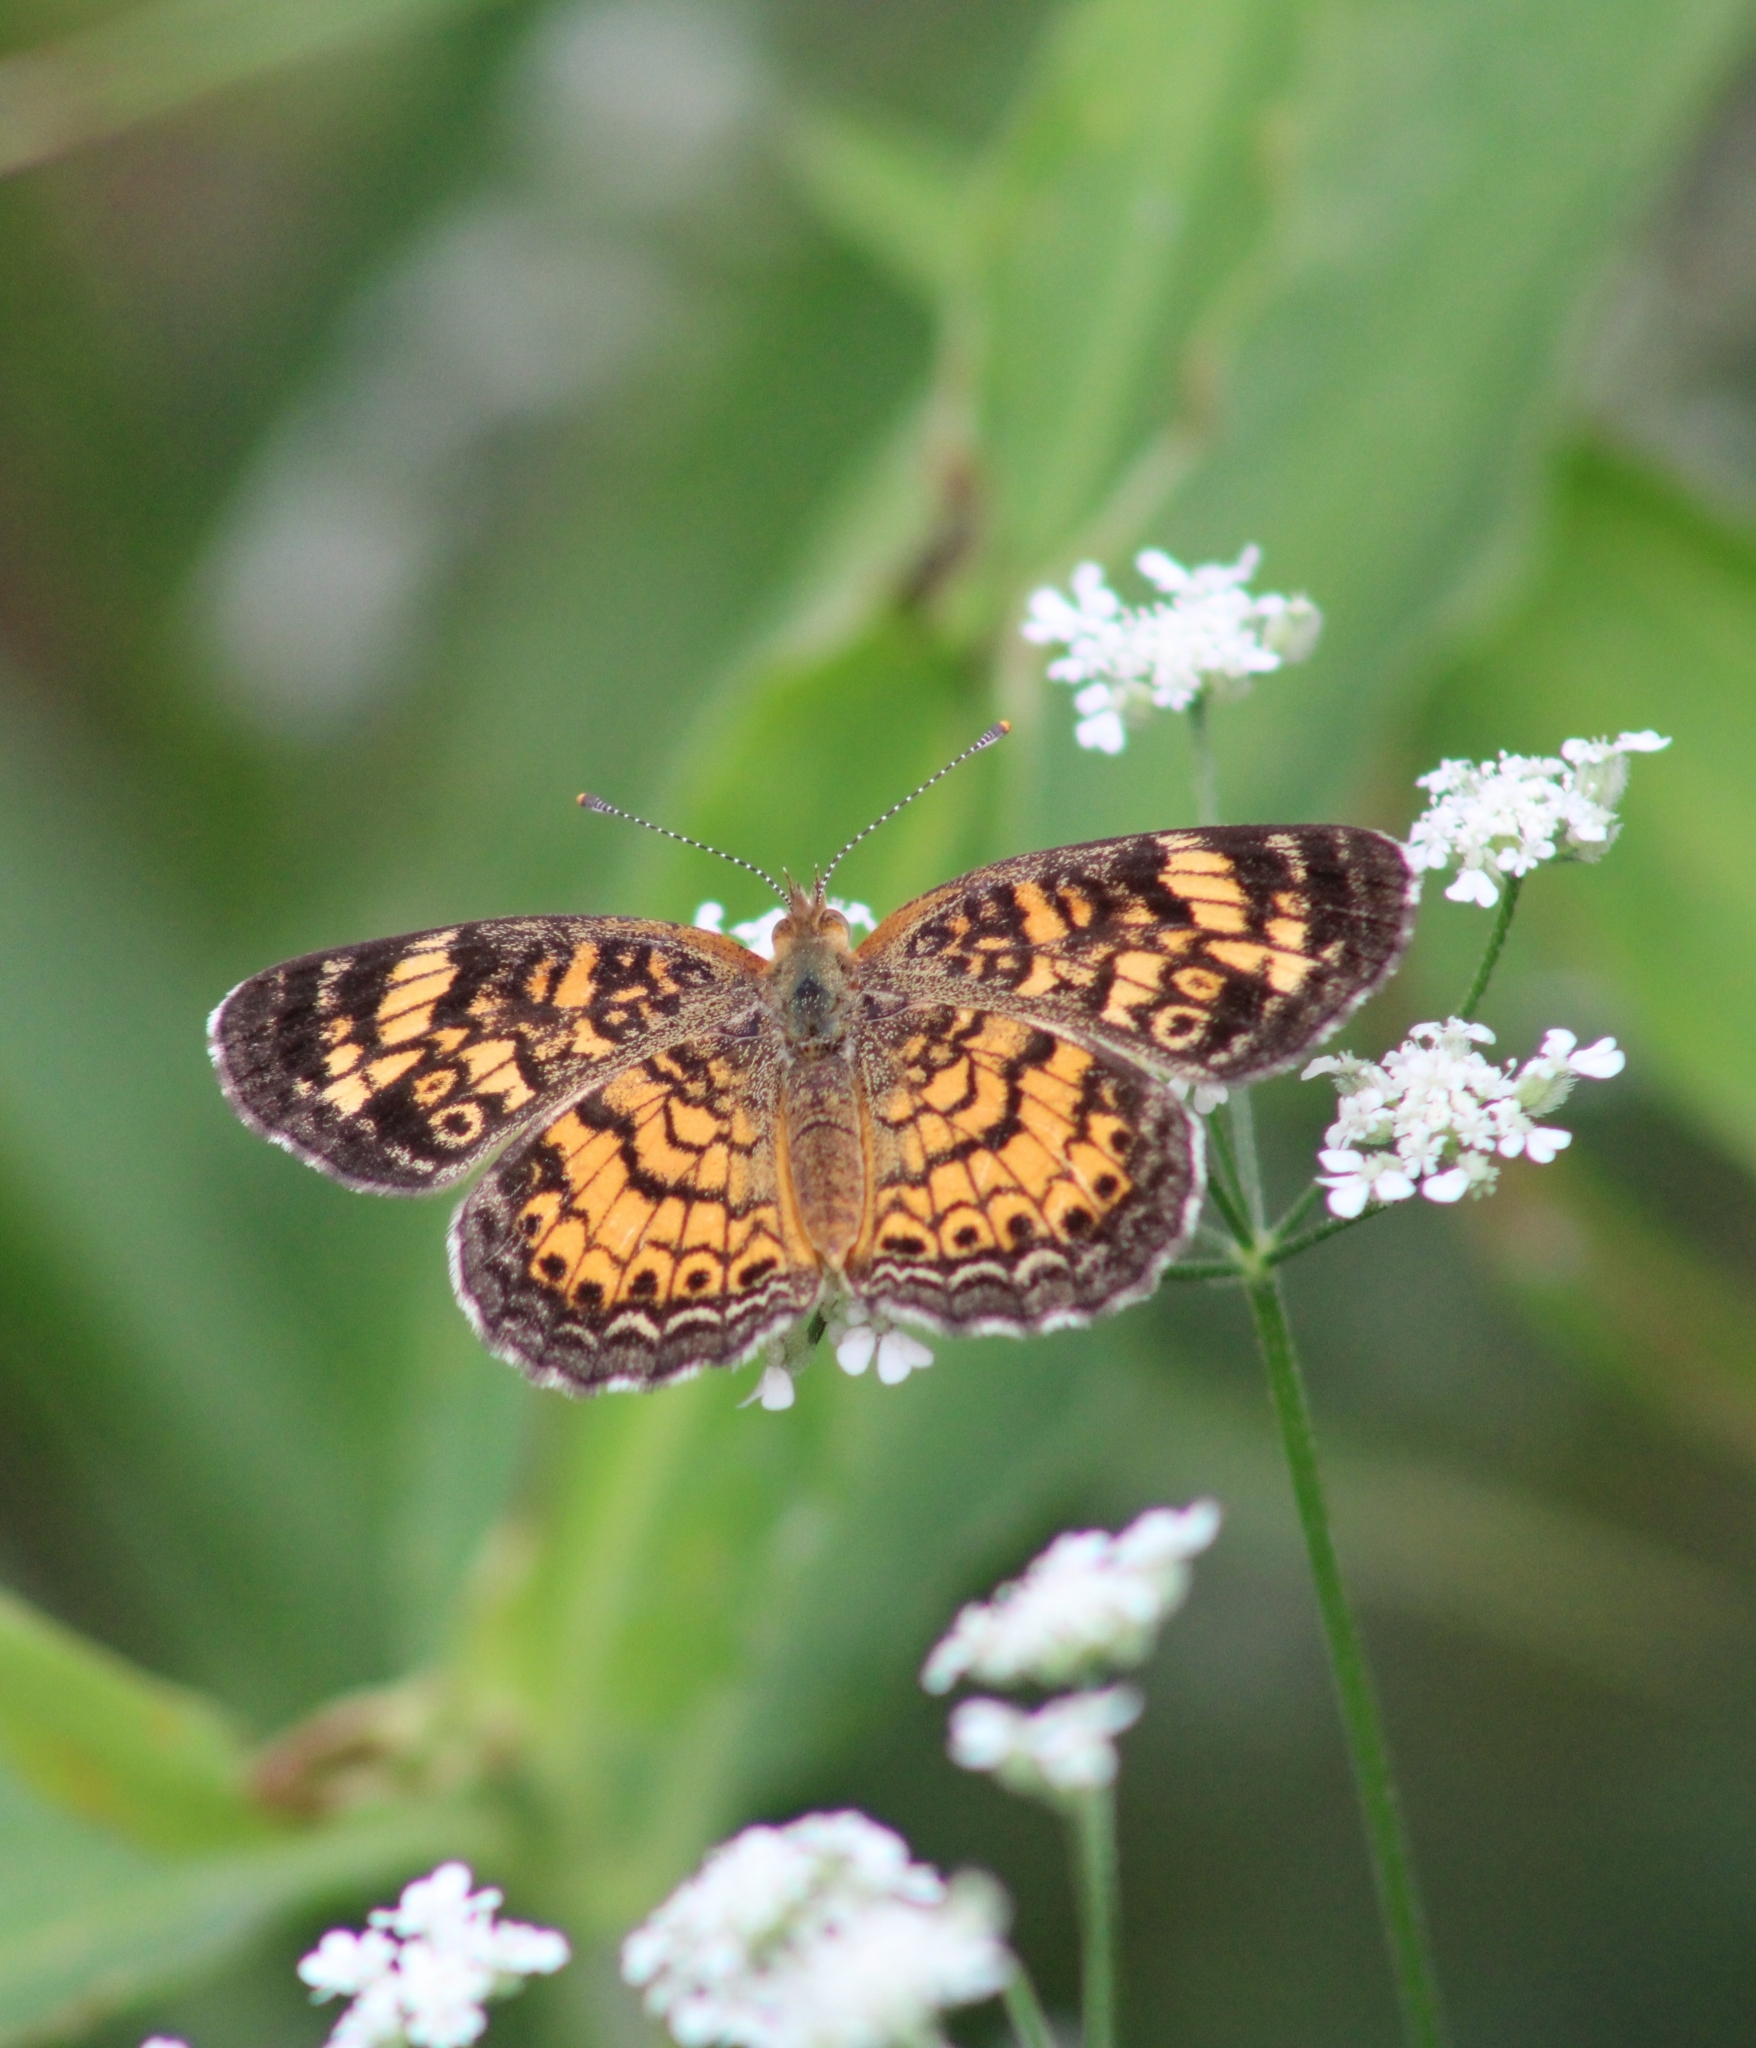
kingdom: Animalia
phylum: Arthropoda
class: Insecta
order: Lepidoptera
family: Nymphalidae
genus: Phyciodes
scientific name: Phyciodes tharos
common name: Pearl crescent
